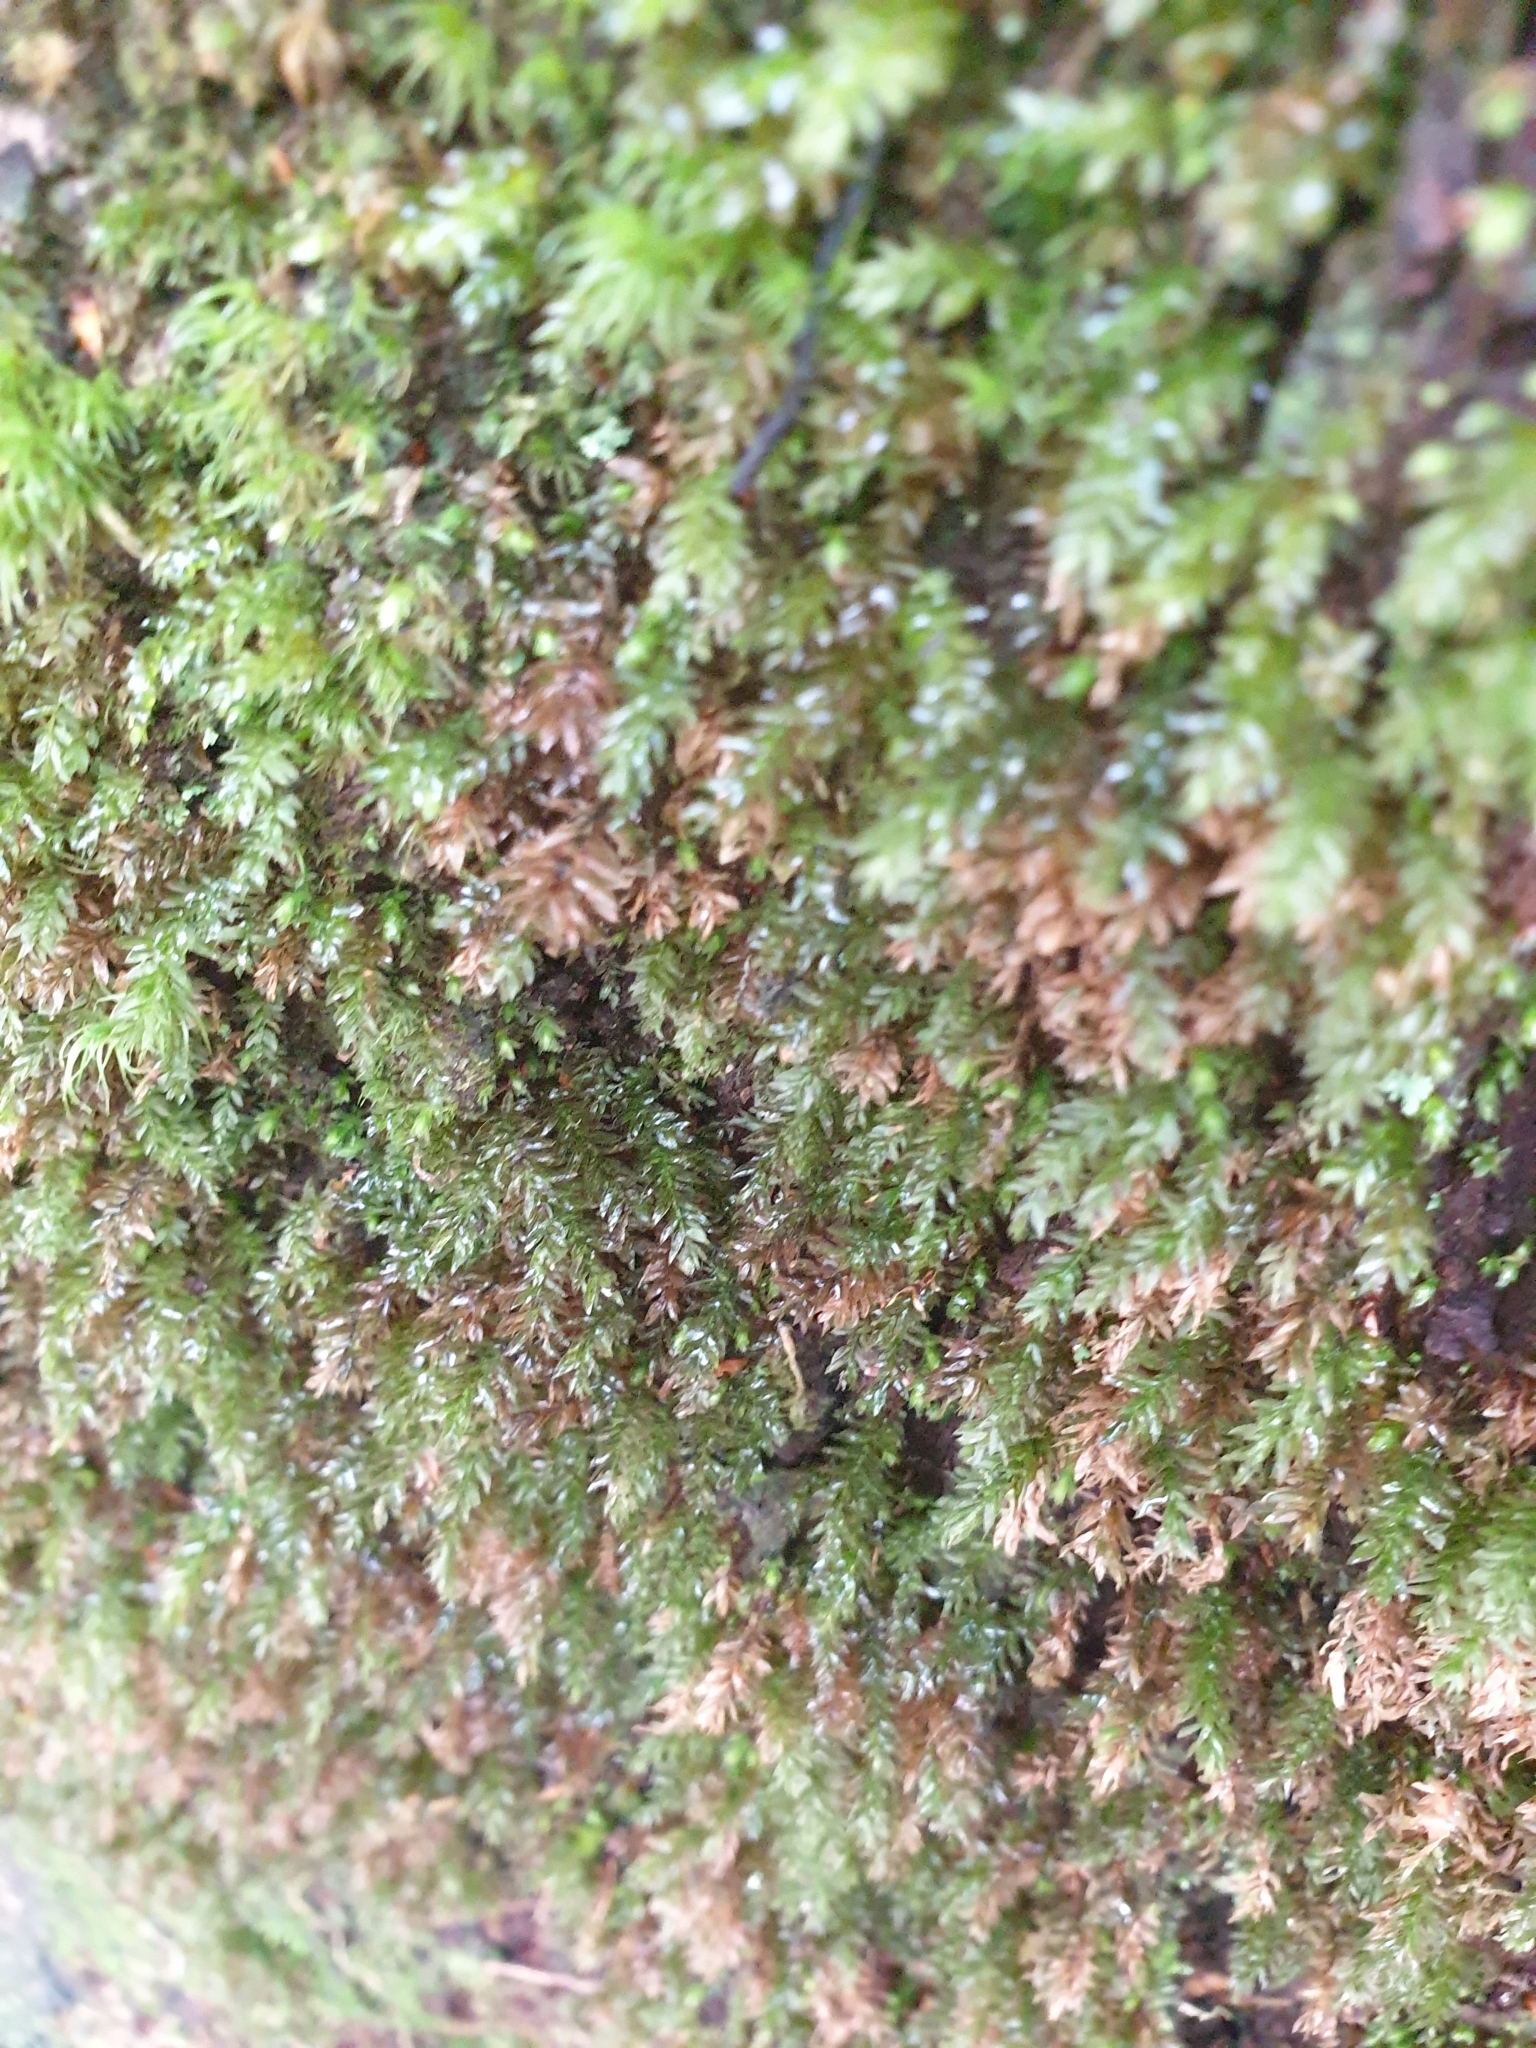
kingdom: Plantae
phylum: Bryophyta
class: Bryopsida
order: Bryales
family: Mniaceae
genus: Mnium
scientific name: Mnium hornum
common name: Swan's-neck leafy moss
